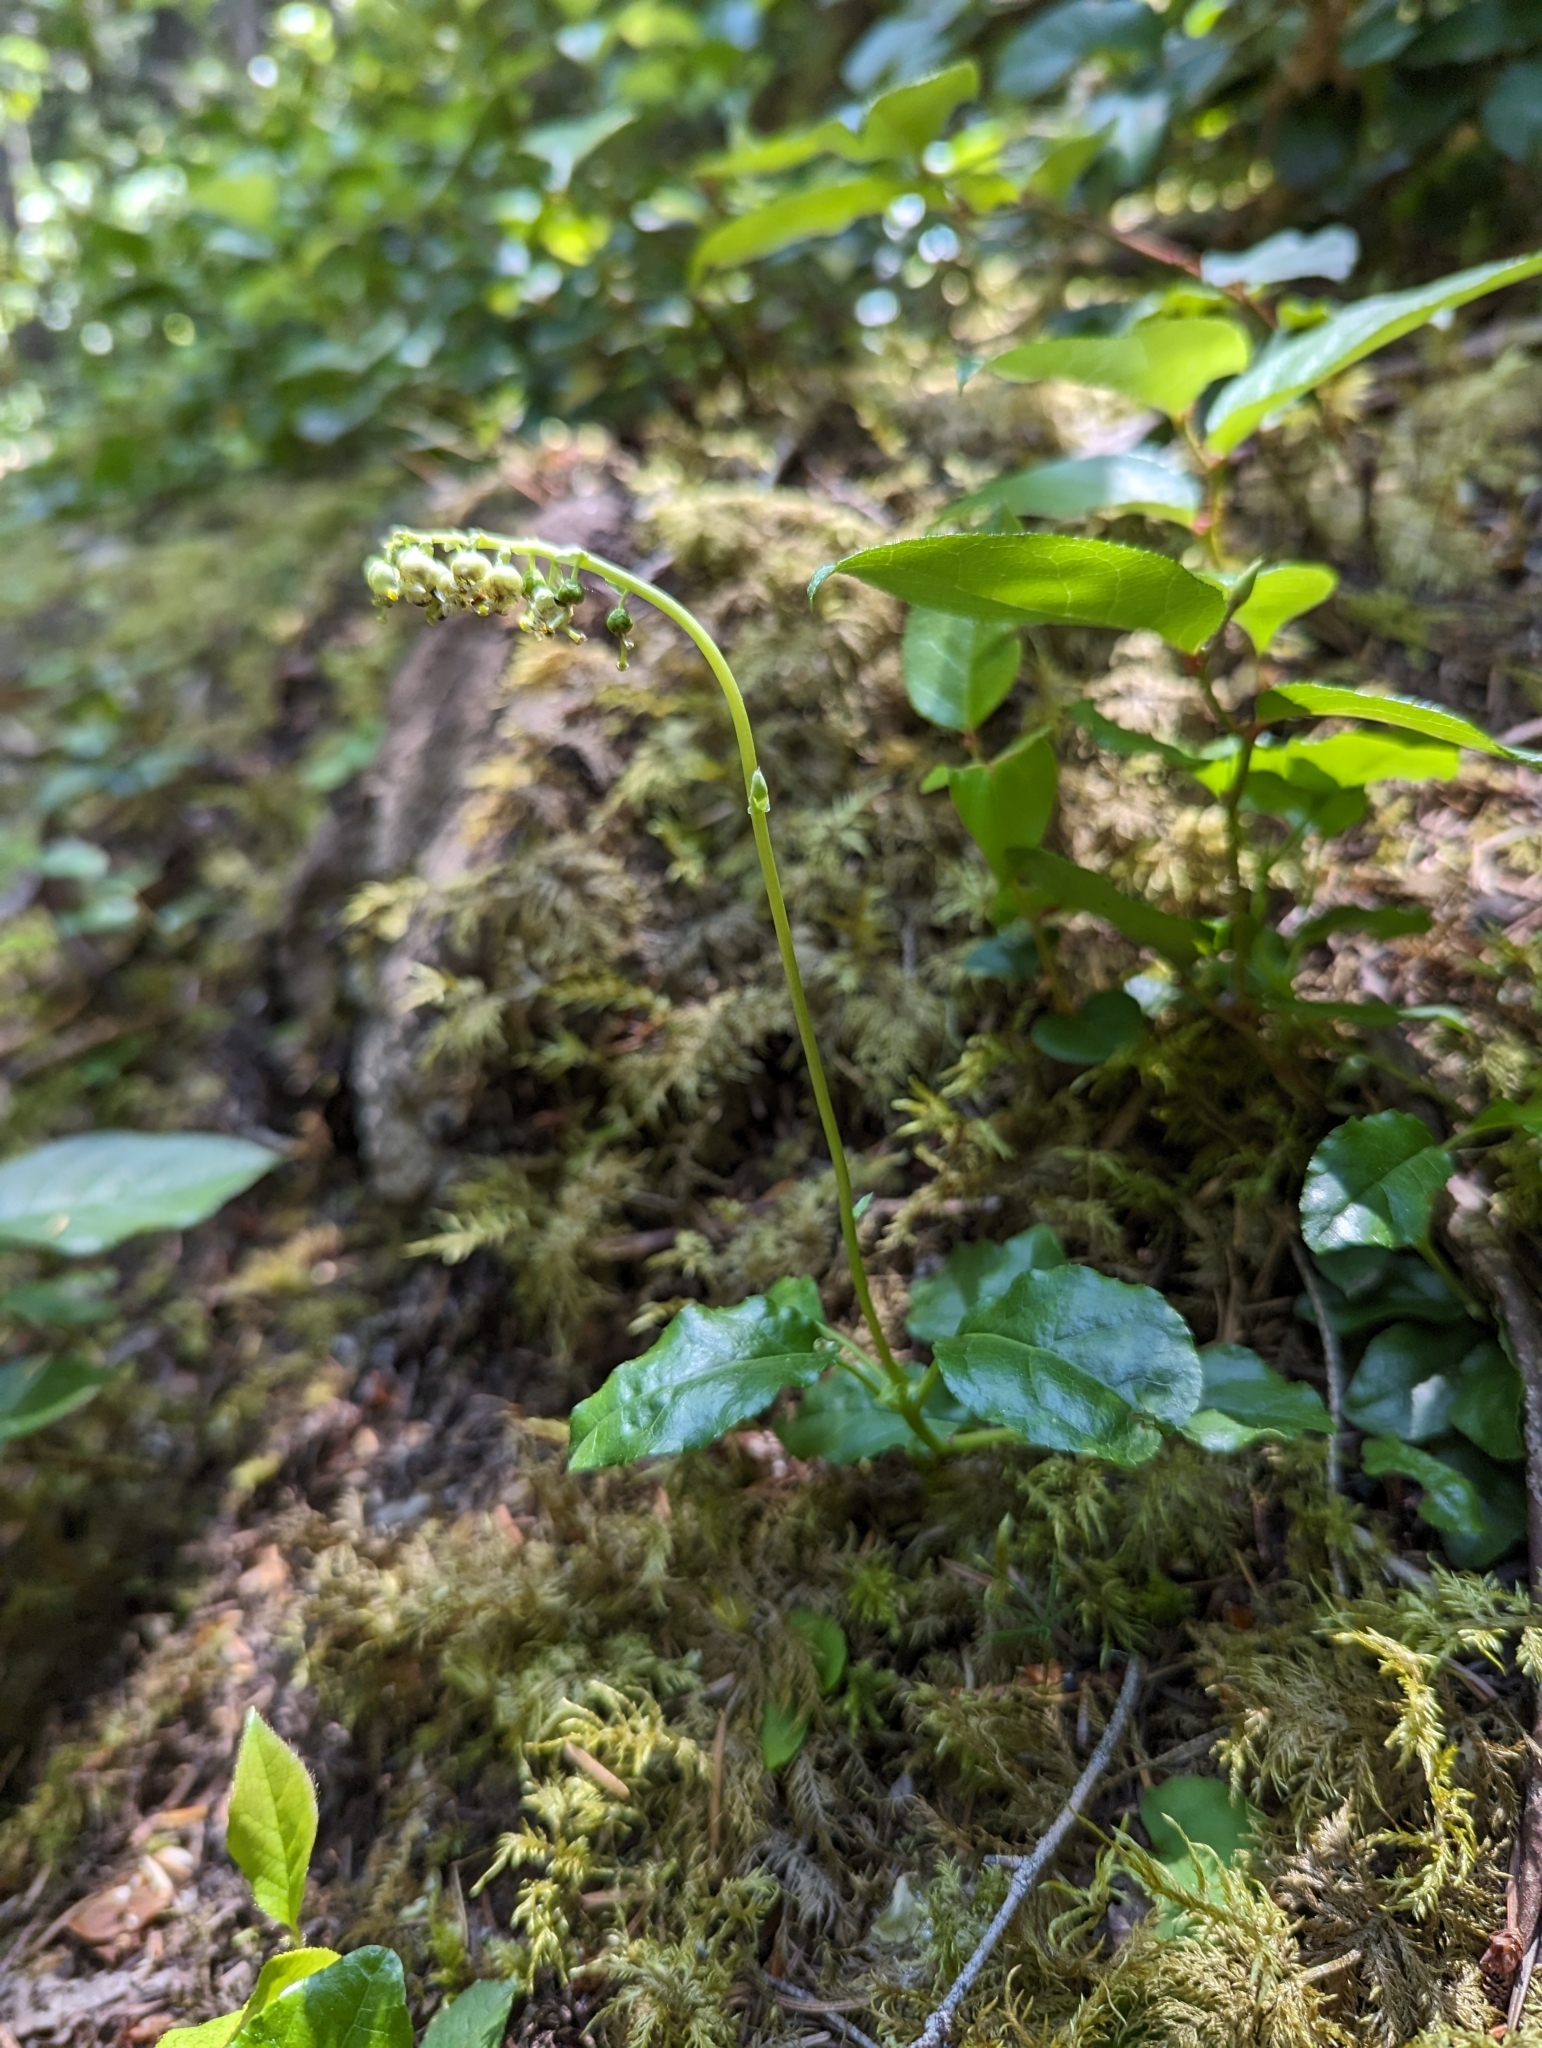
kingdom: Plantae
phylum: Tracheophyta
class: Magnoliopsida
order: Ericales
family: Ericaceae
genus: Orthilia
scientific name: Orthilia secunda
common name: One-sided orthilia
